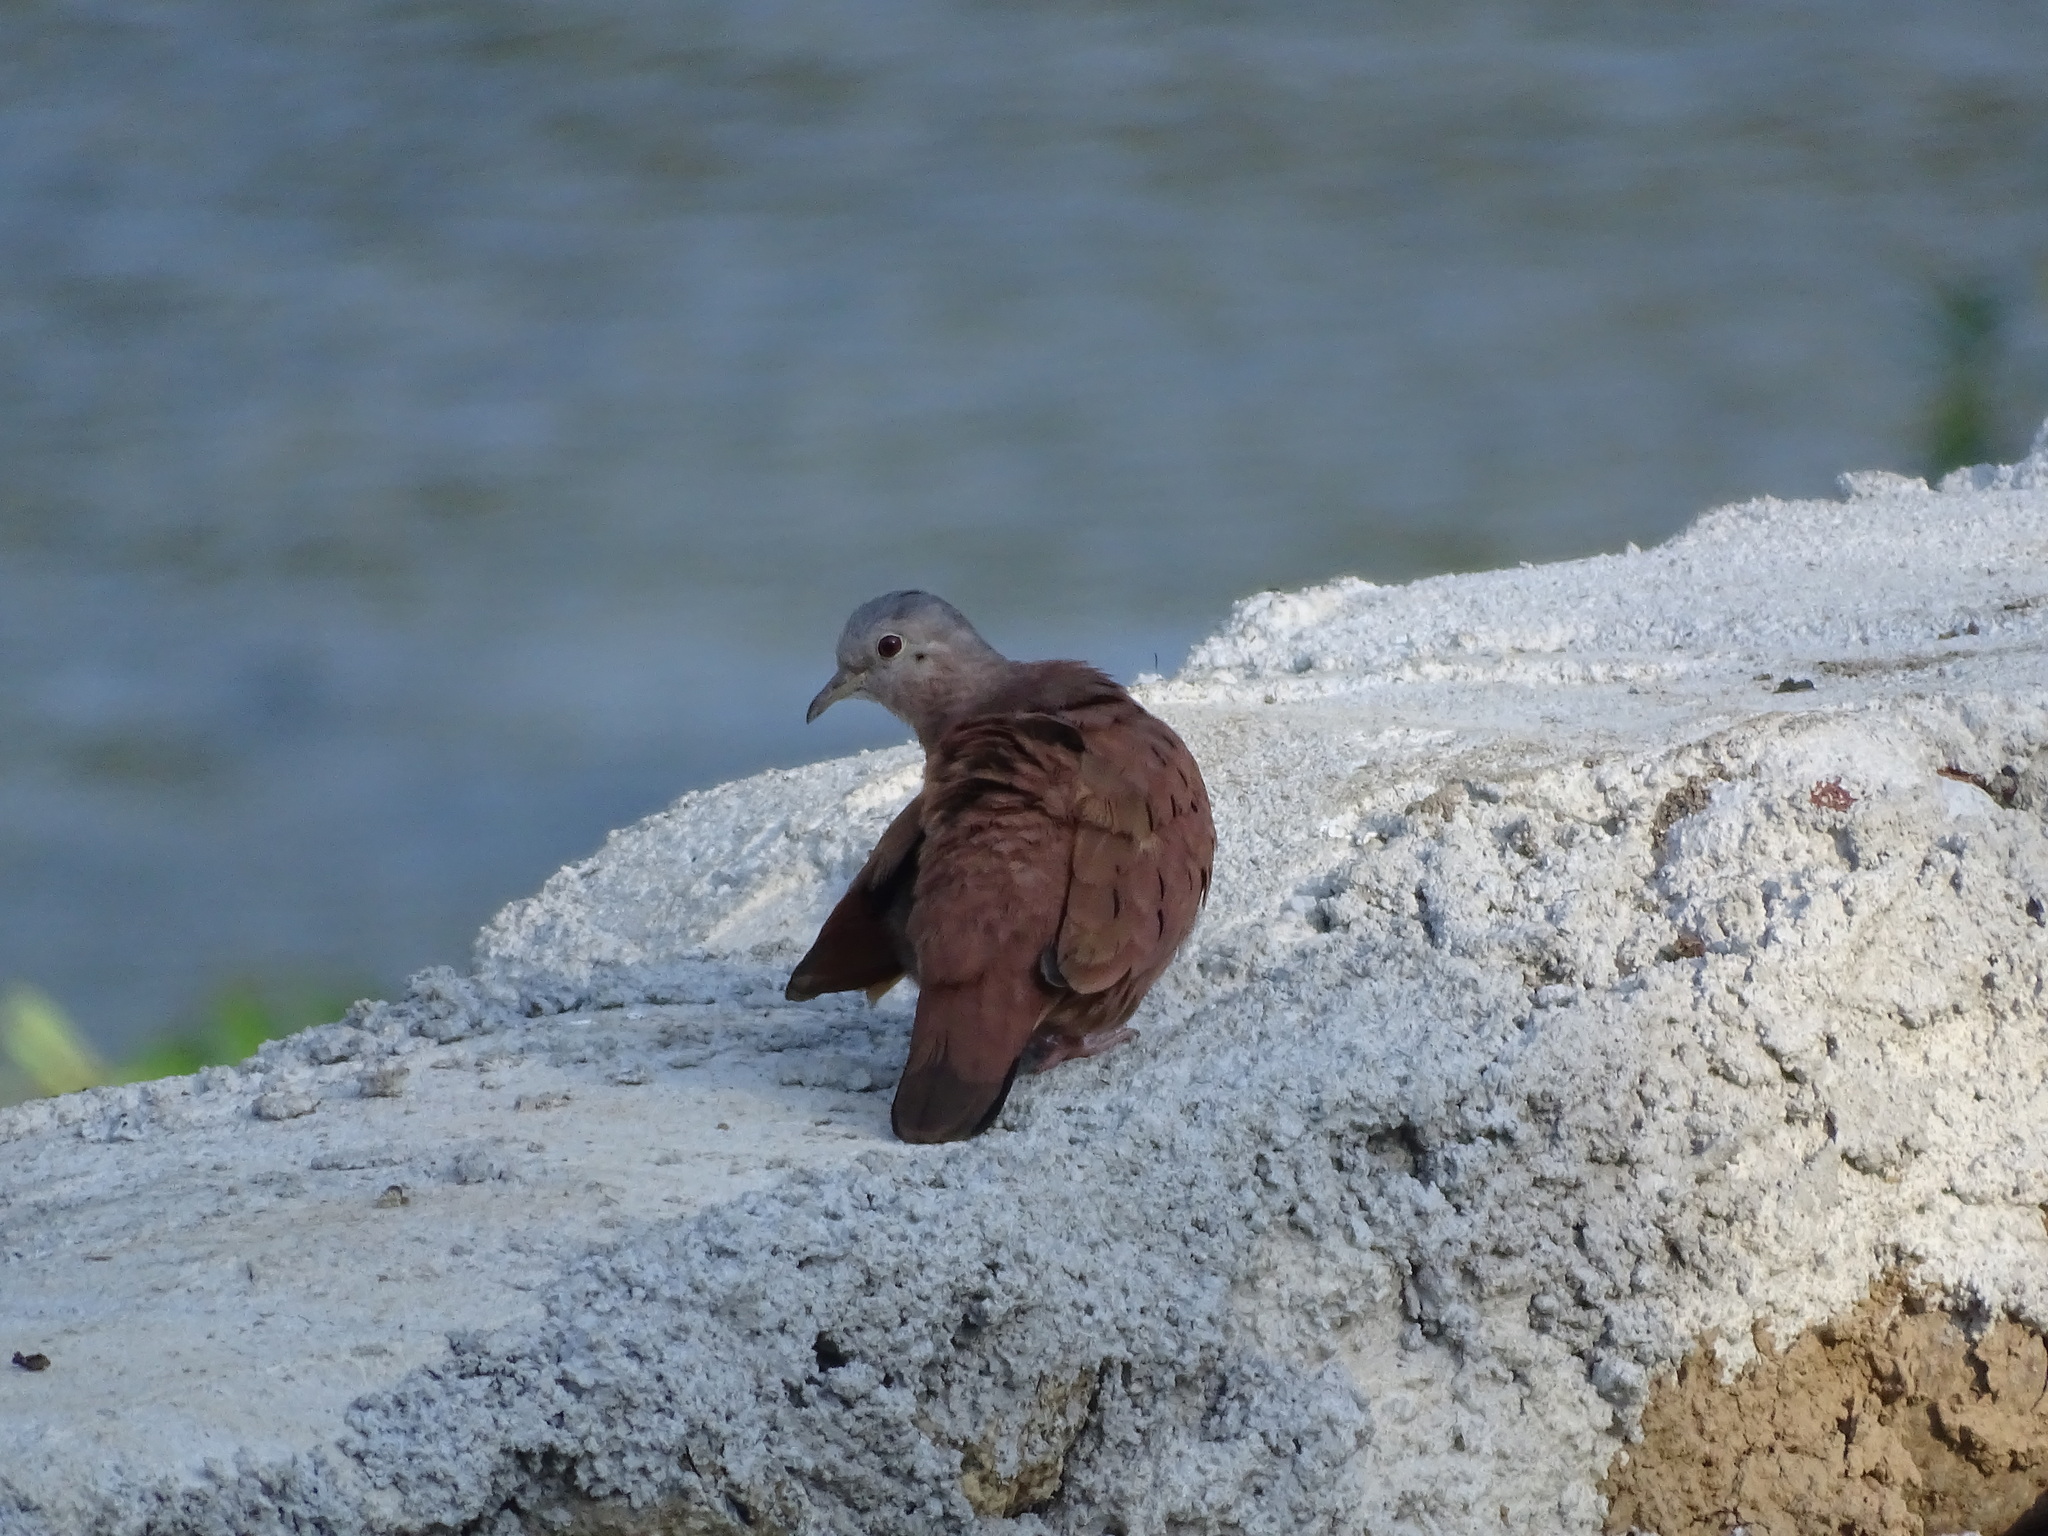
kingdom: Animalia
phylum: Chordata
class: Aves
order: Columbiformes
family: Columbidae
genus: Columbina
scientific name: Columbina talpacoti
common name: Ruddy ground dove
